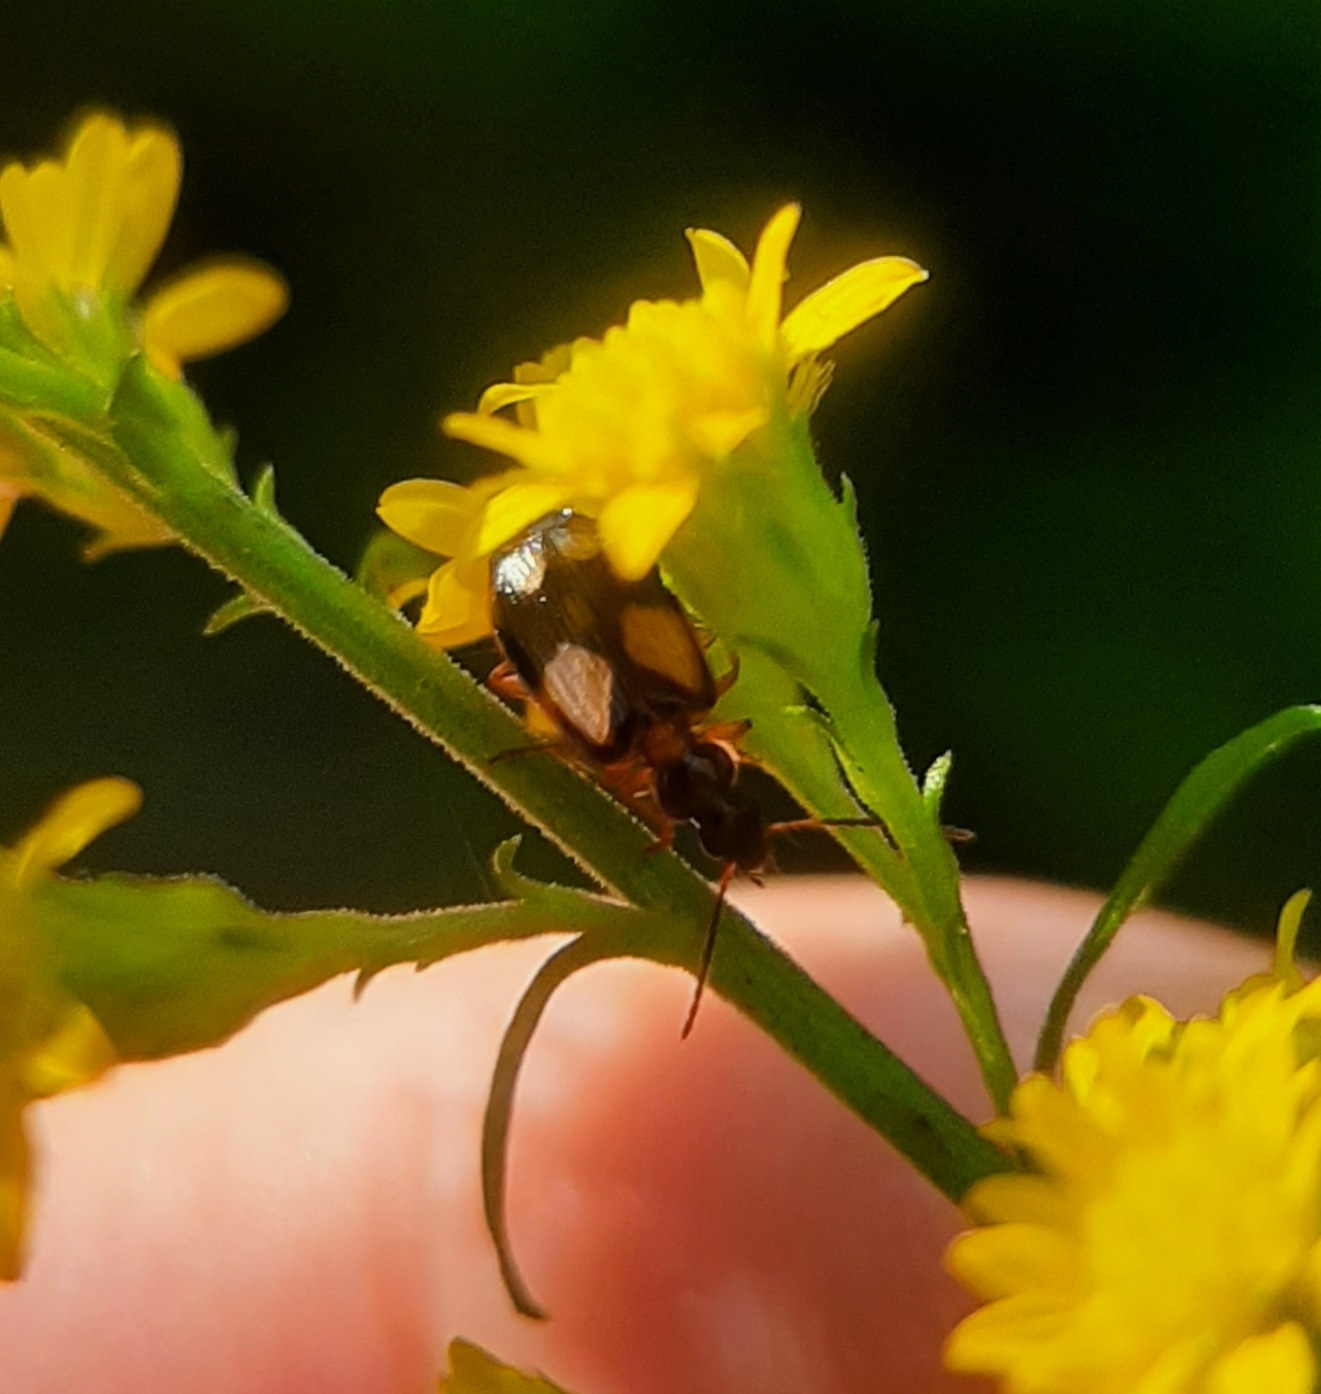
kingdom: Animalia
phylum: Arthropoda
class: Insecta
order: Coleoptera
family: Carabidae
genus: Lebia
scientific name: Lebia ornata
